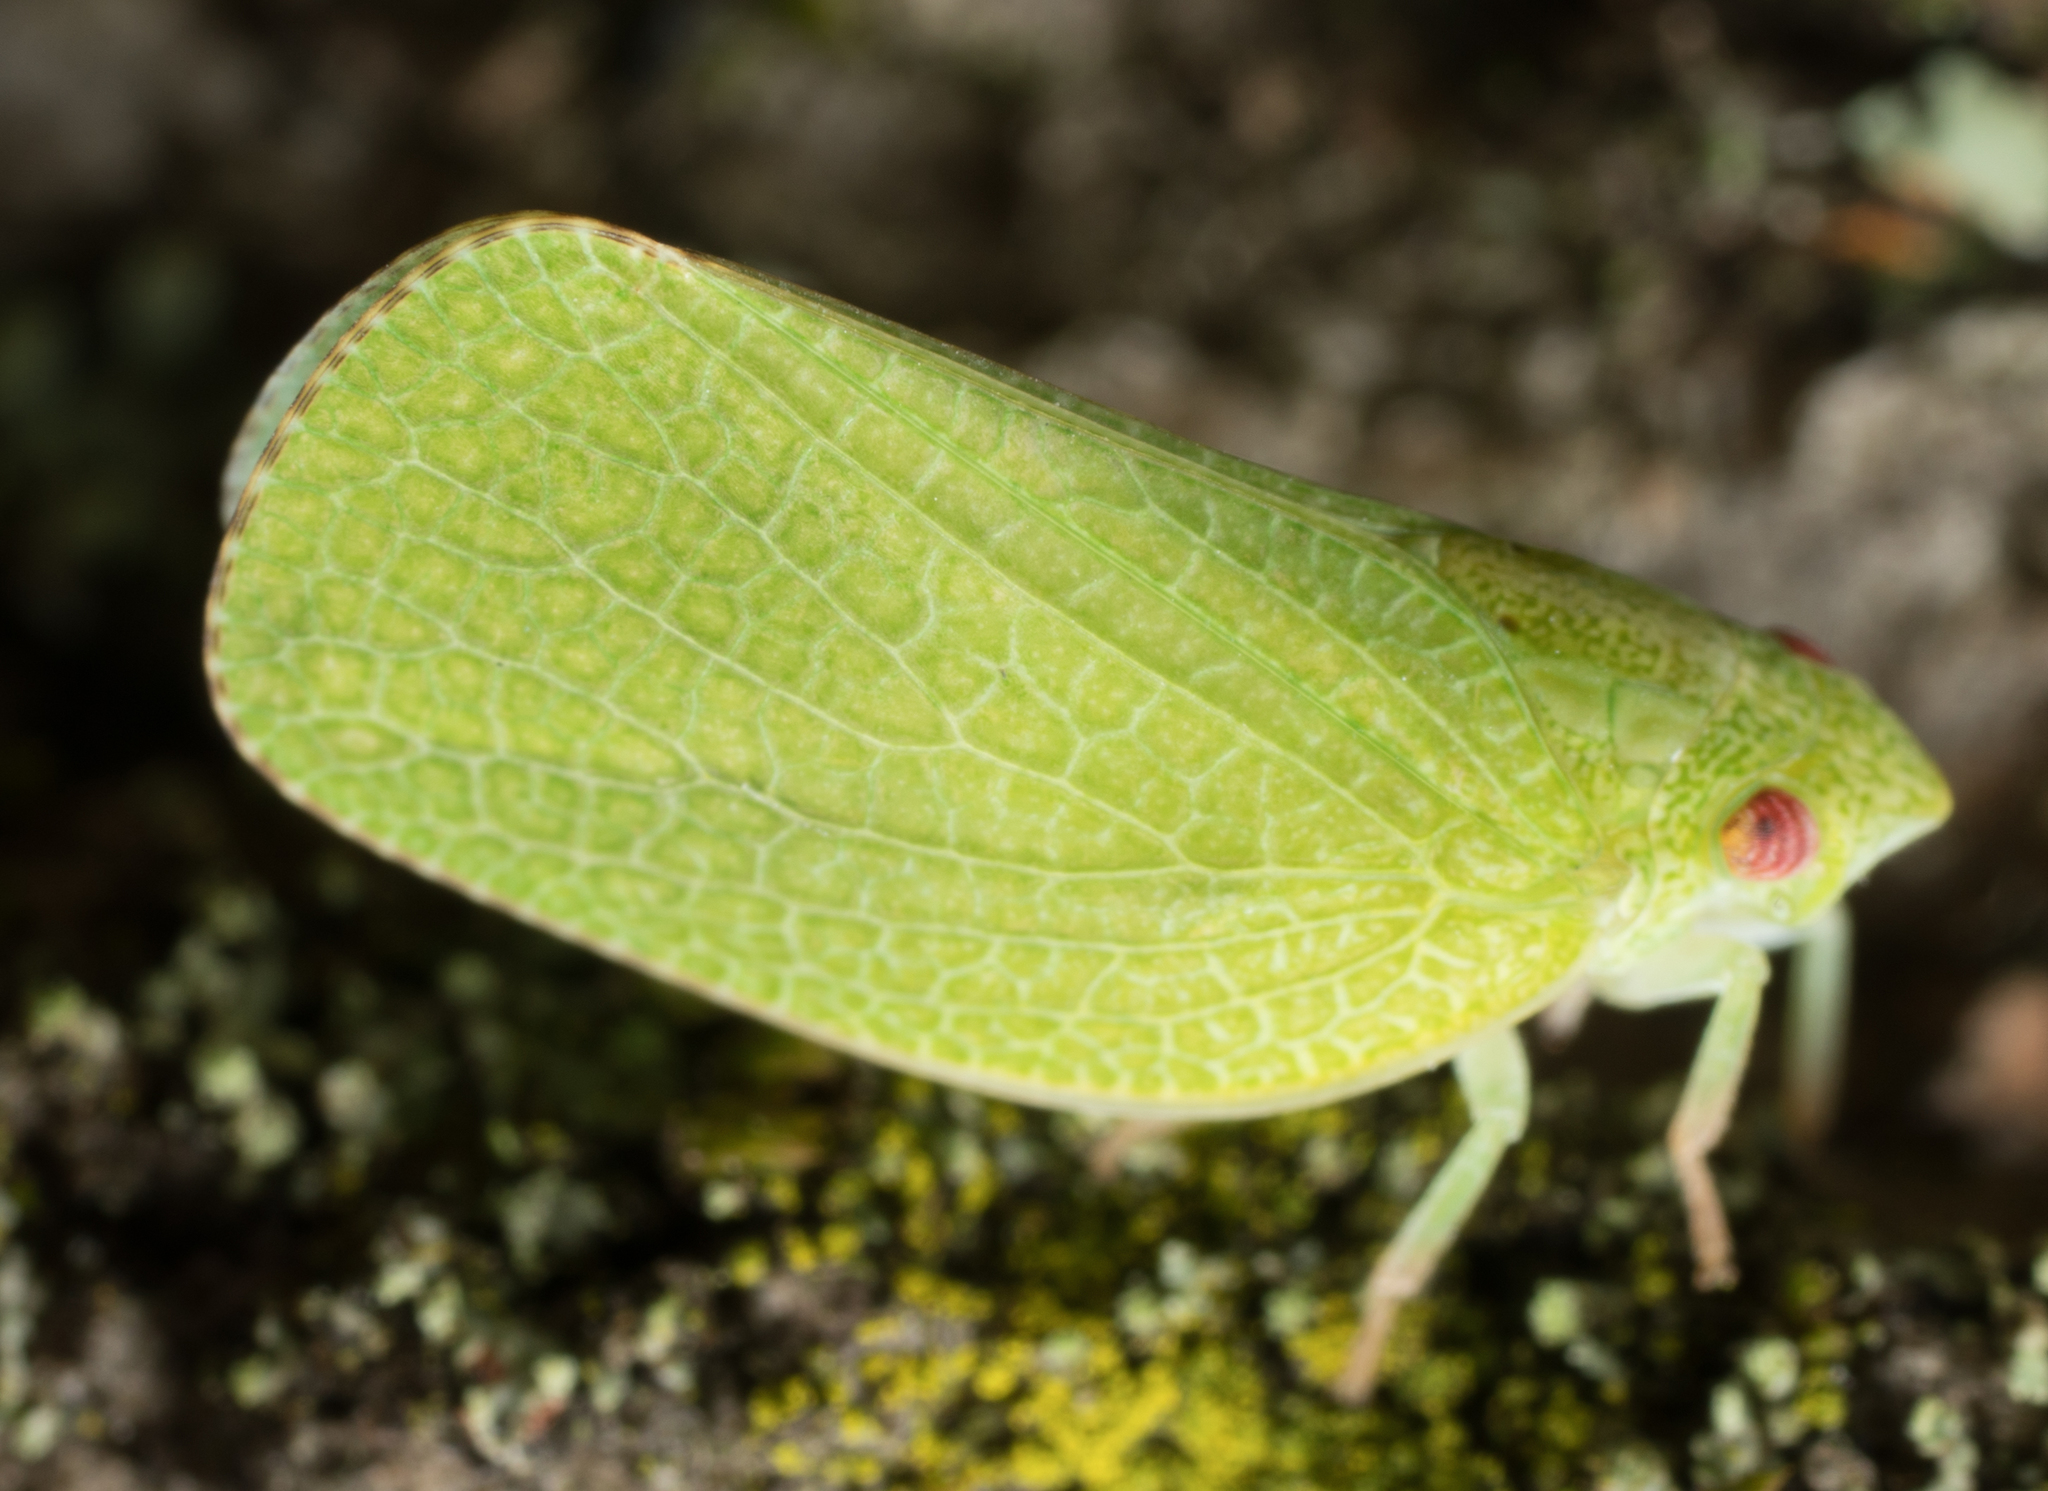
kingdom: Animalia
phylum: Arthropoda
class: Insecta
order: Hemiptera
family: Acanaloniidae
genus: Acanalonia
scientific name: Acanalonia conica
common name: Green cone-headed planthopper
